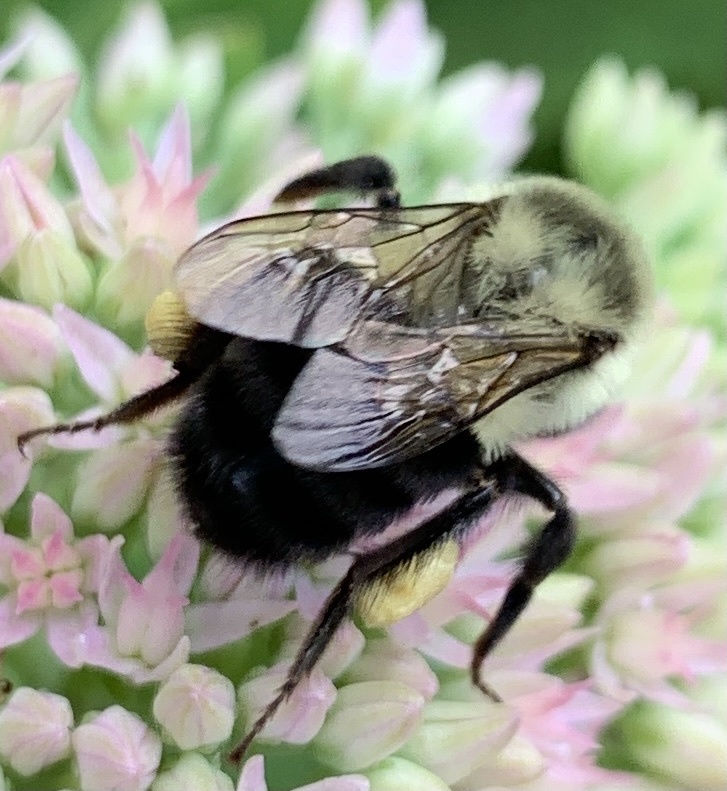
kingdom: Animalia
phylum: Arthropoda
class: Insecta
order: Hymenoptera
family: Apidae
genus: Bombus
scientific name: Bombus impatiens
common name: Common eastern bumble bee
